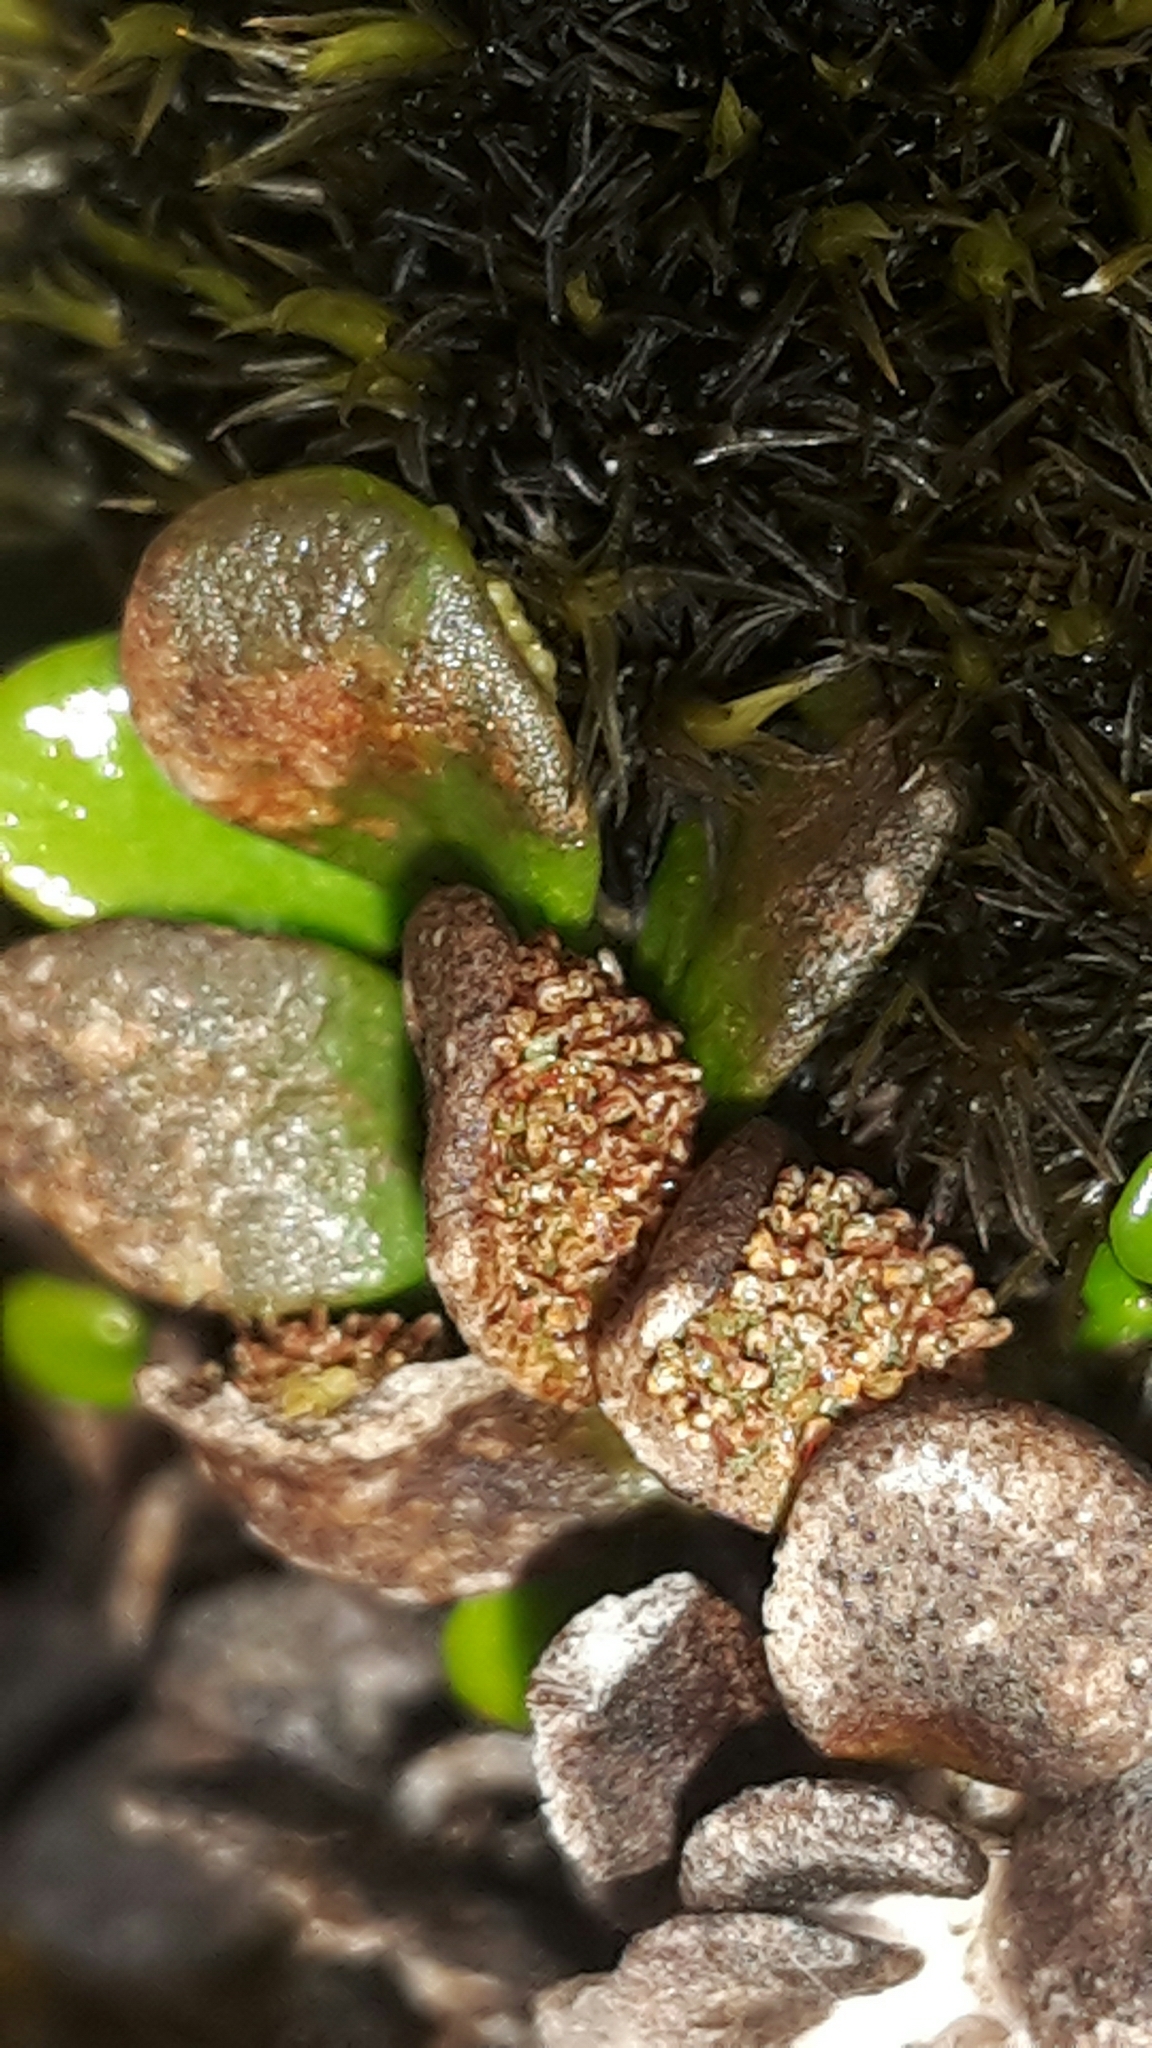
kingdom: Plantae
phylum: Tracheophyta
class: Polypodiopsida
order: Polypodiales
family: Polypodiaceae
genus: Notogrammitis
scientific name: Notogrammitis crassior
